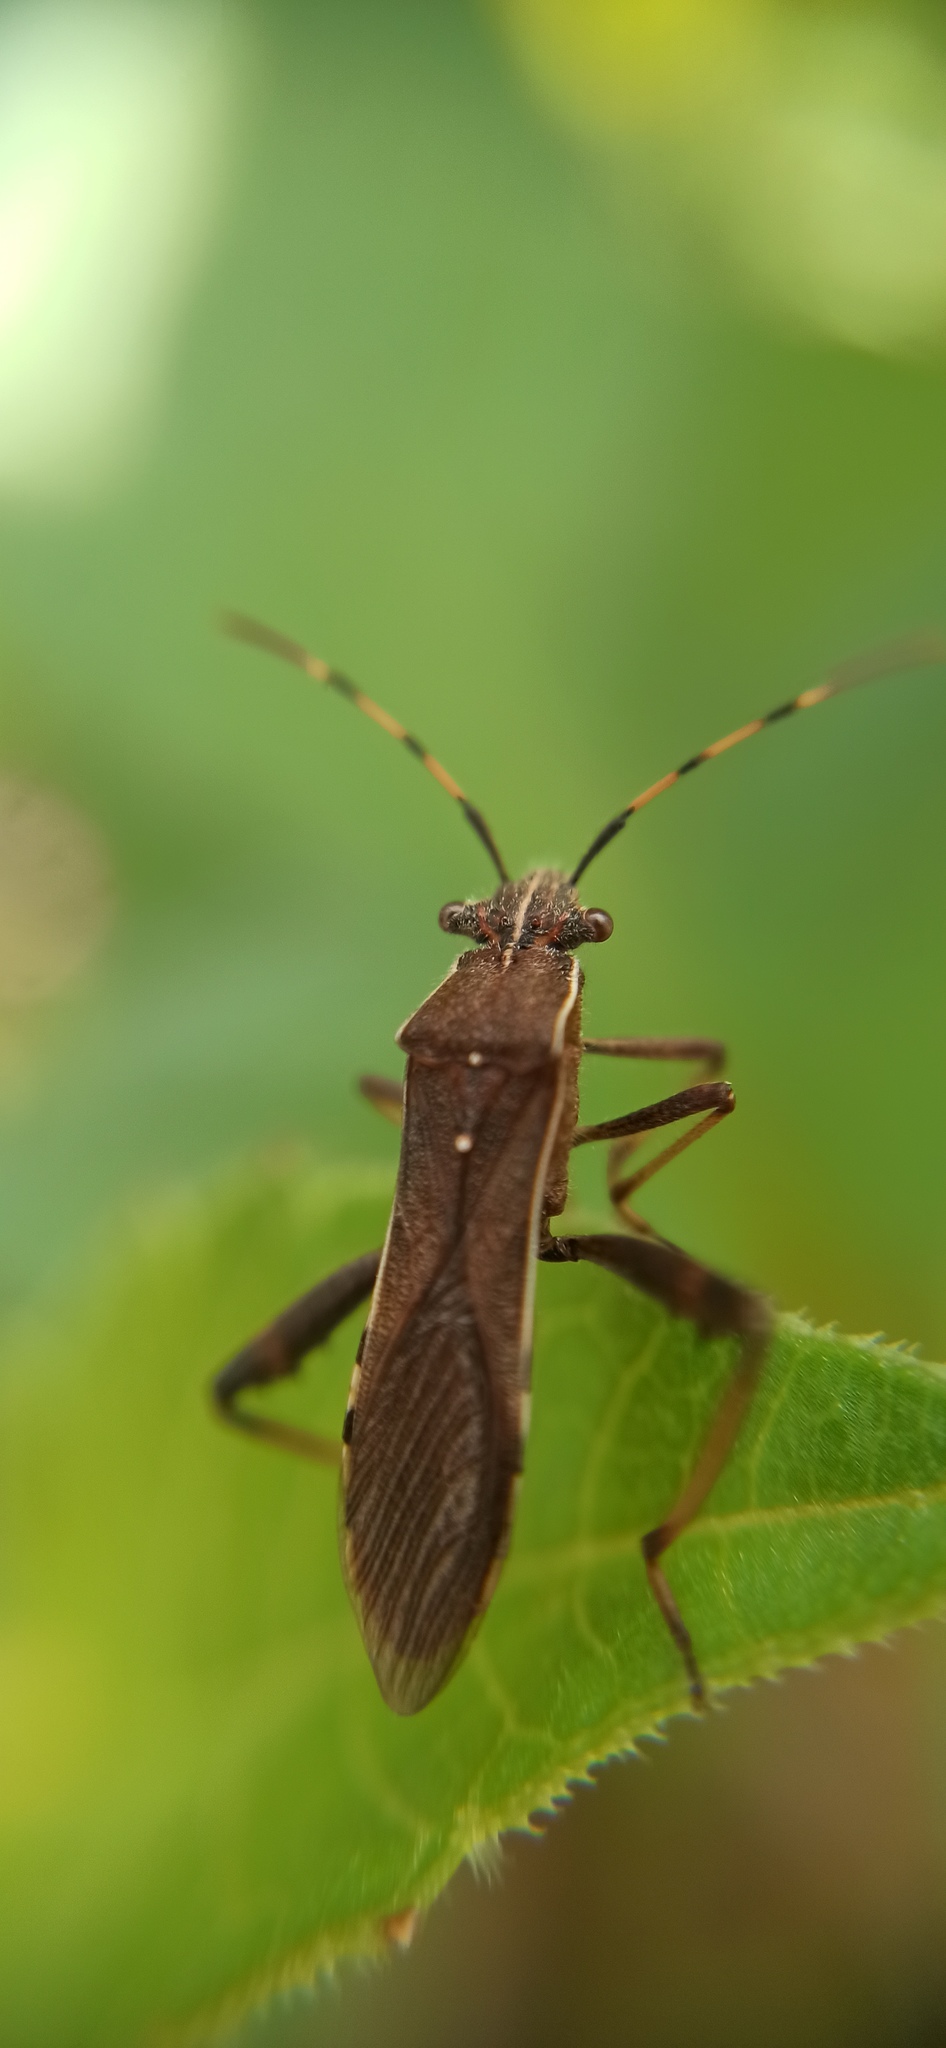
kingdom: Animalia
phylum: Arthropoda
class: Insecta
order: Hemiptera
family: Alydidae
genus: Camptopus
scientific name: Camptopus lateralis
